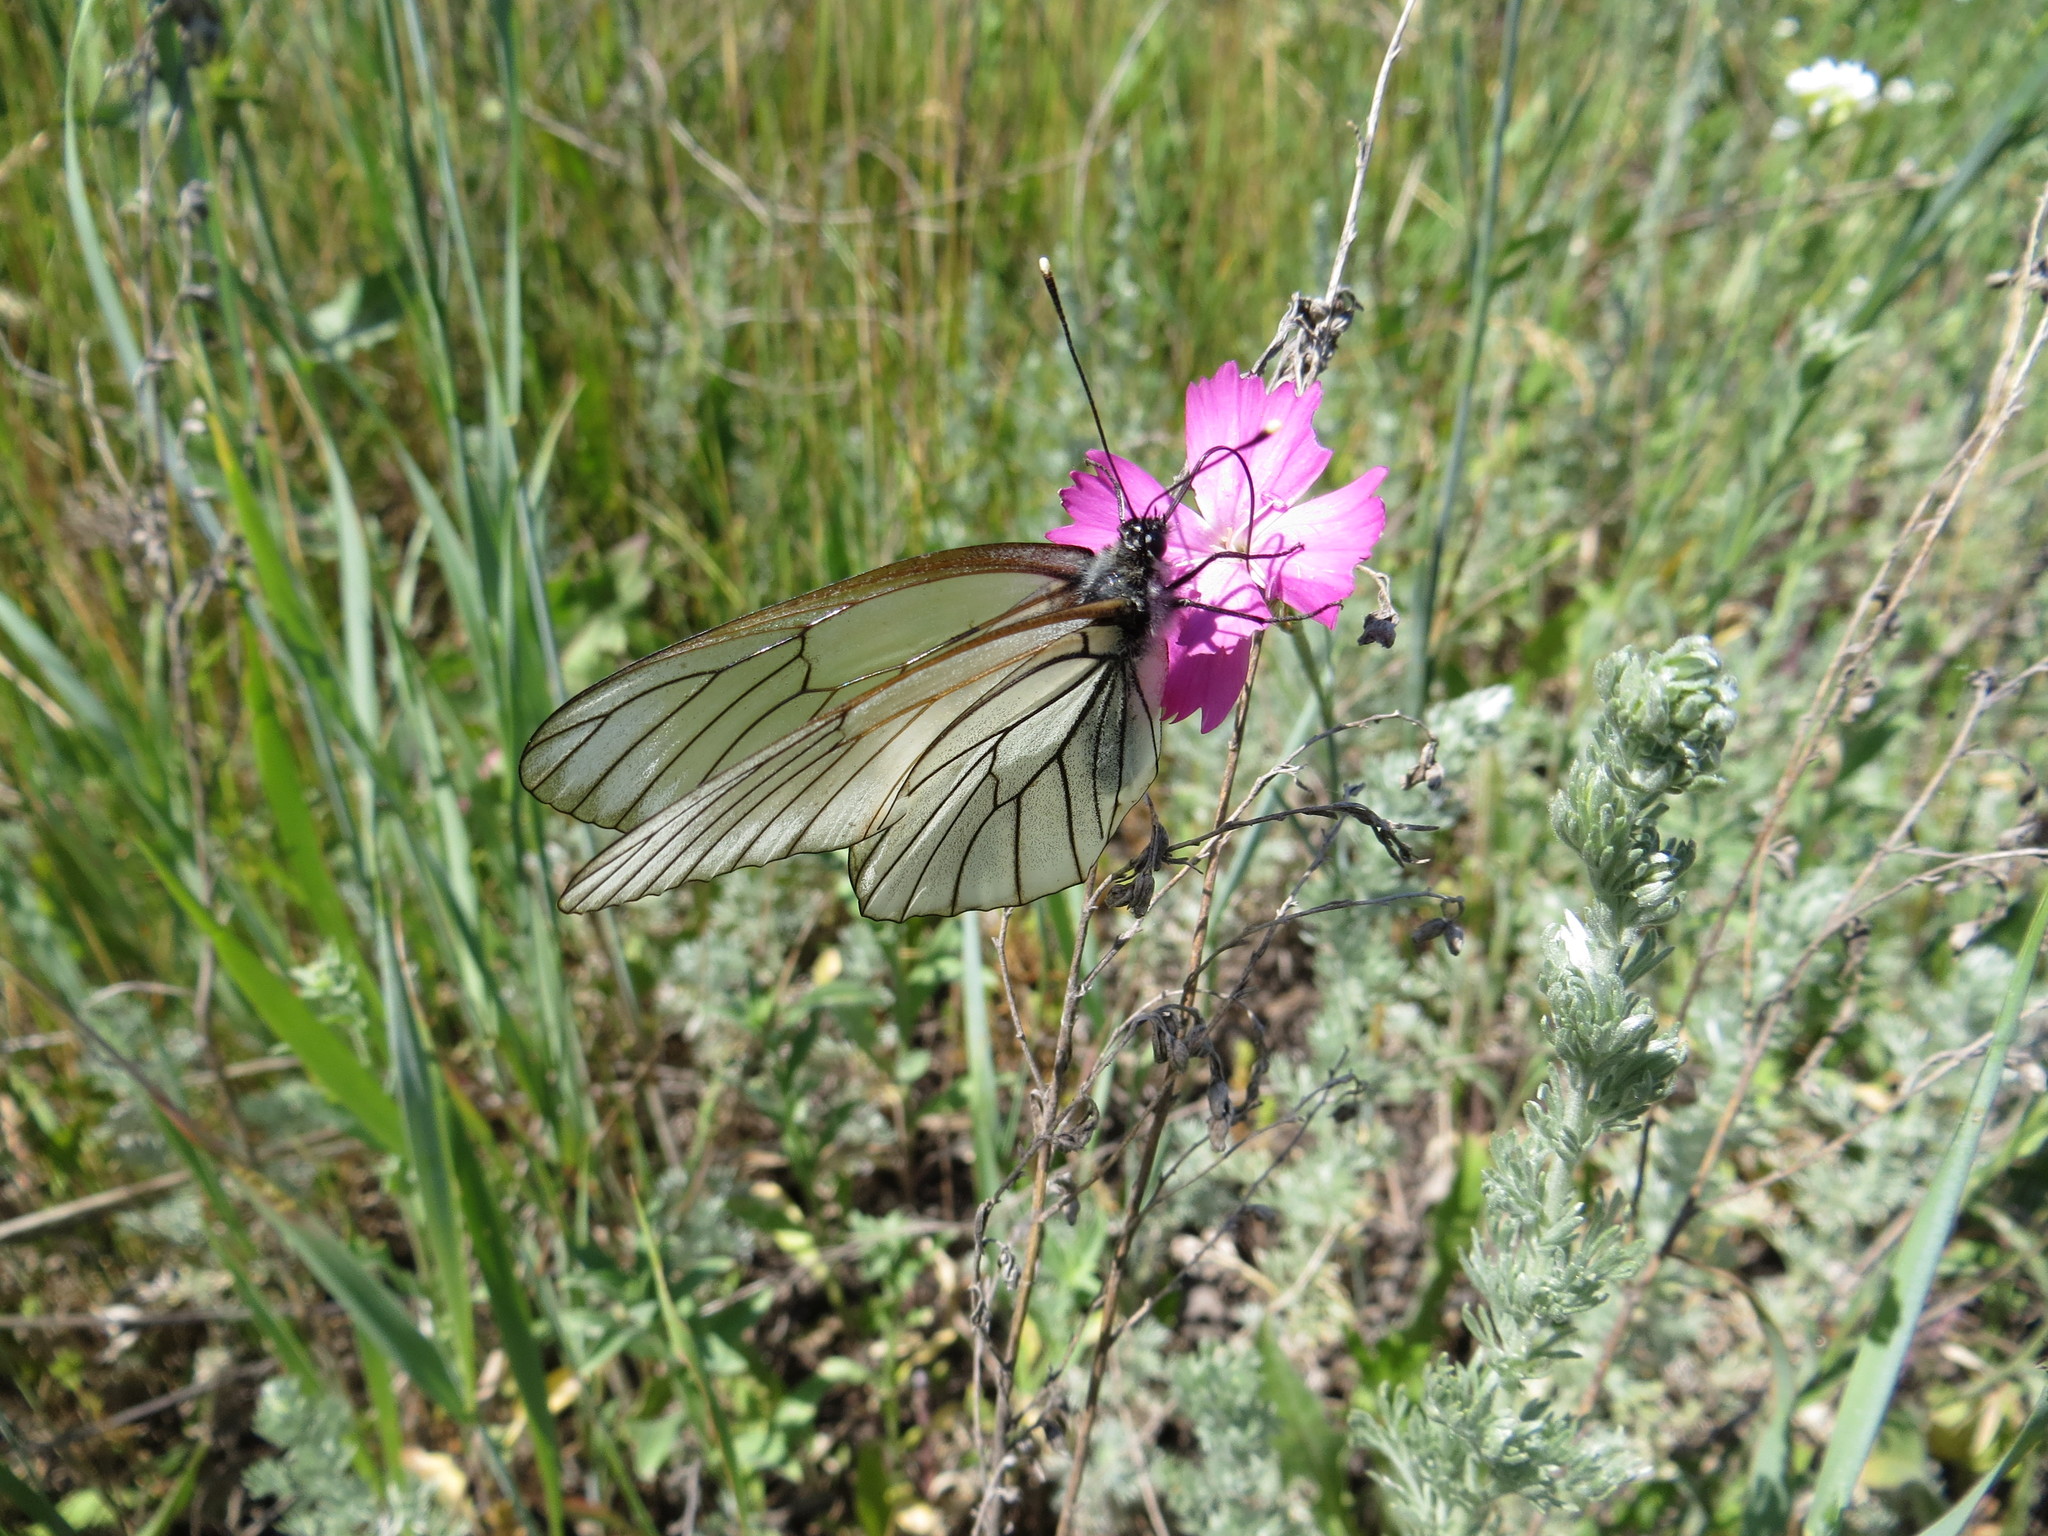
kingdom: Animalia
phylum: Arthropoda
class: Insecta
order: Lepidoptera
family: Pieridae
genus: Aporia
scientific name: Aporia crataegi
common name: Black-veined white
